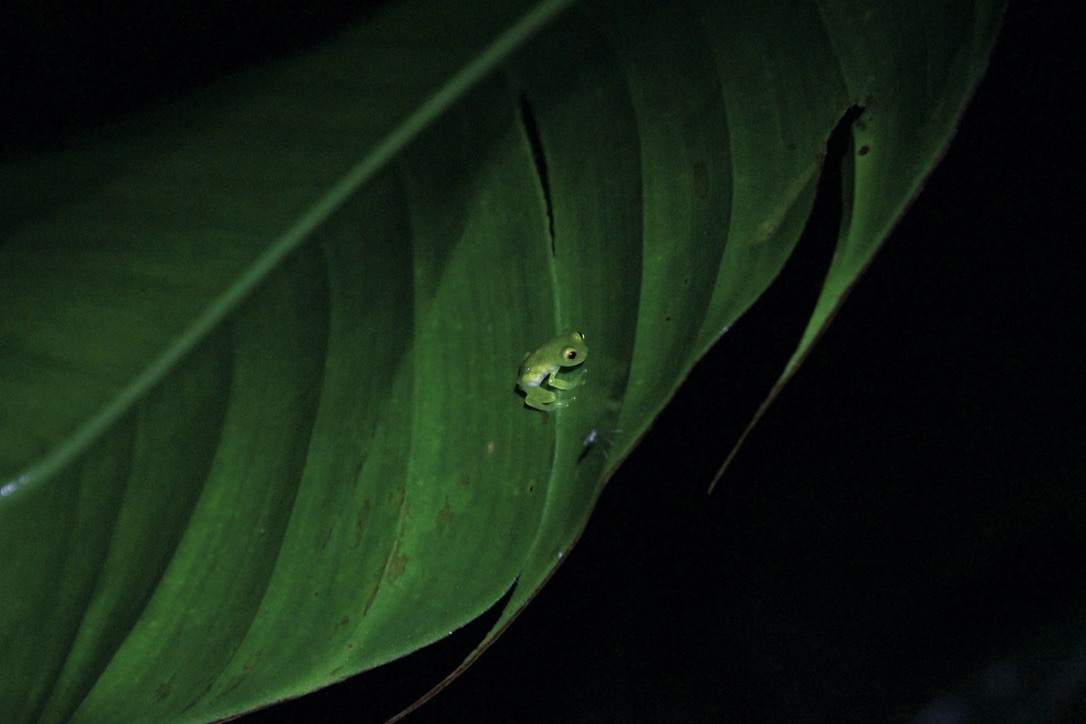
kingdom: Animalia
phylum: Chordata
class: Amphibia
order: Anura
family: Centrolenidae
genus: Hyalinobatrachium
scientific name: Hyalinobatrachium orientale
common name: Eastern glass frog
